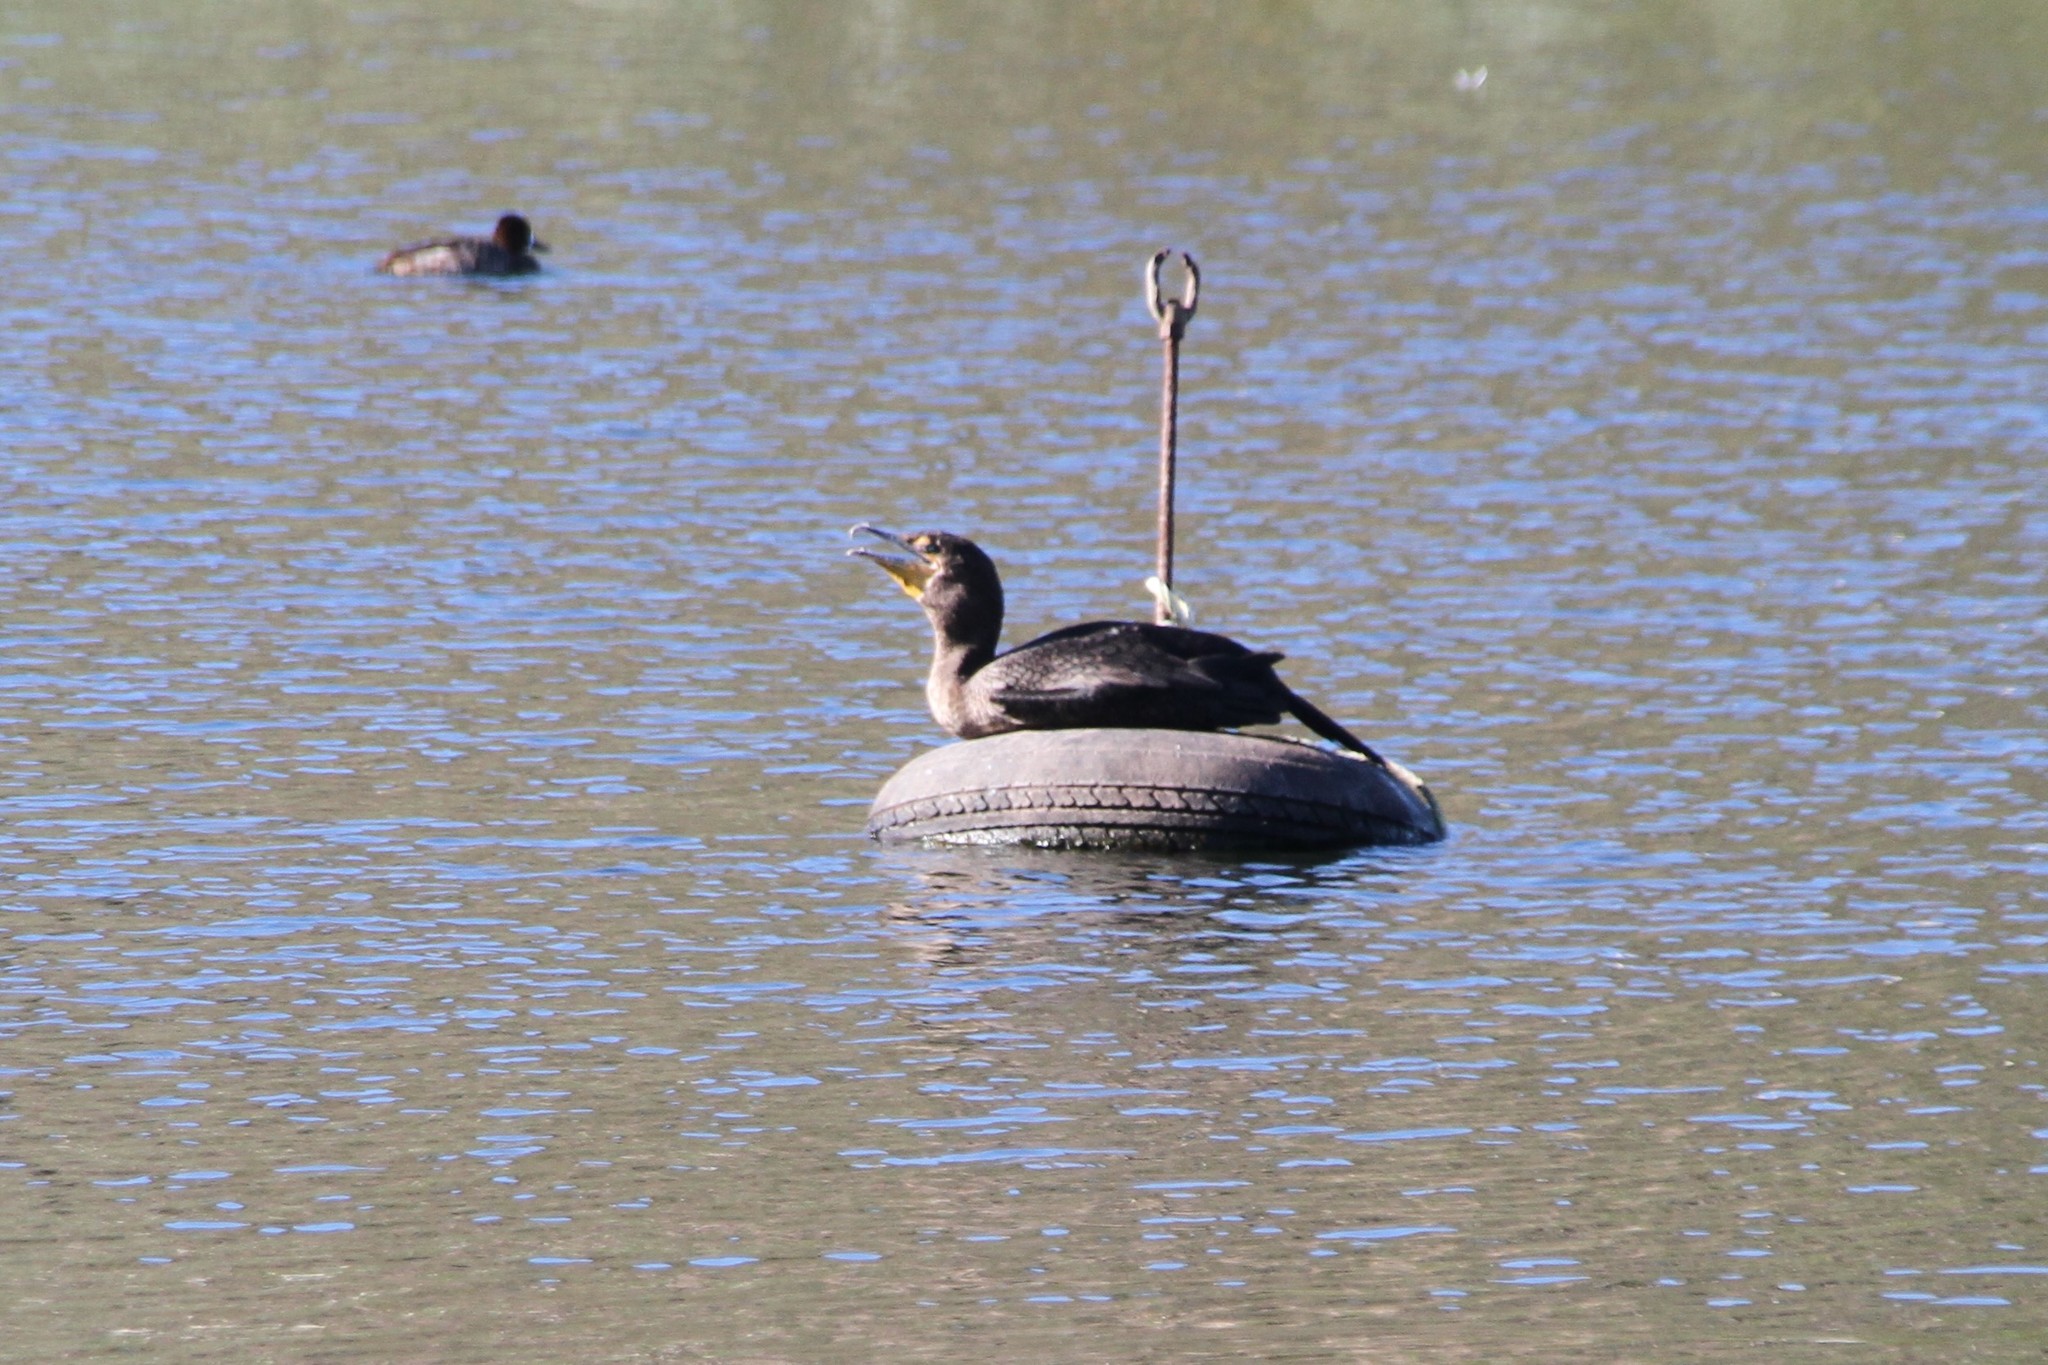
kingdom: Animalia
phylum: Chordata
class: Aves
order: Suliformes
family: Phalacrocoracidae
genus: Phalacrocorax
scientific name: Phalacrocorax auritus
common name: Double-crested cormorant
